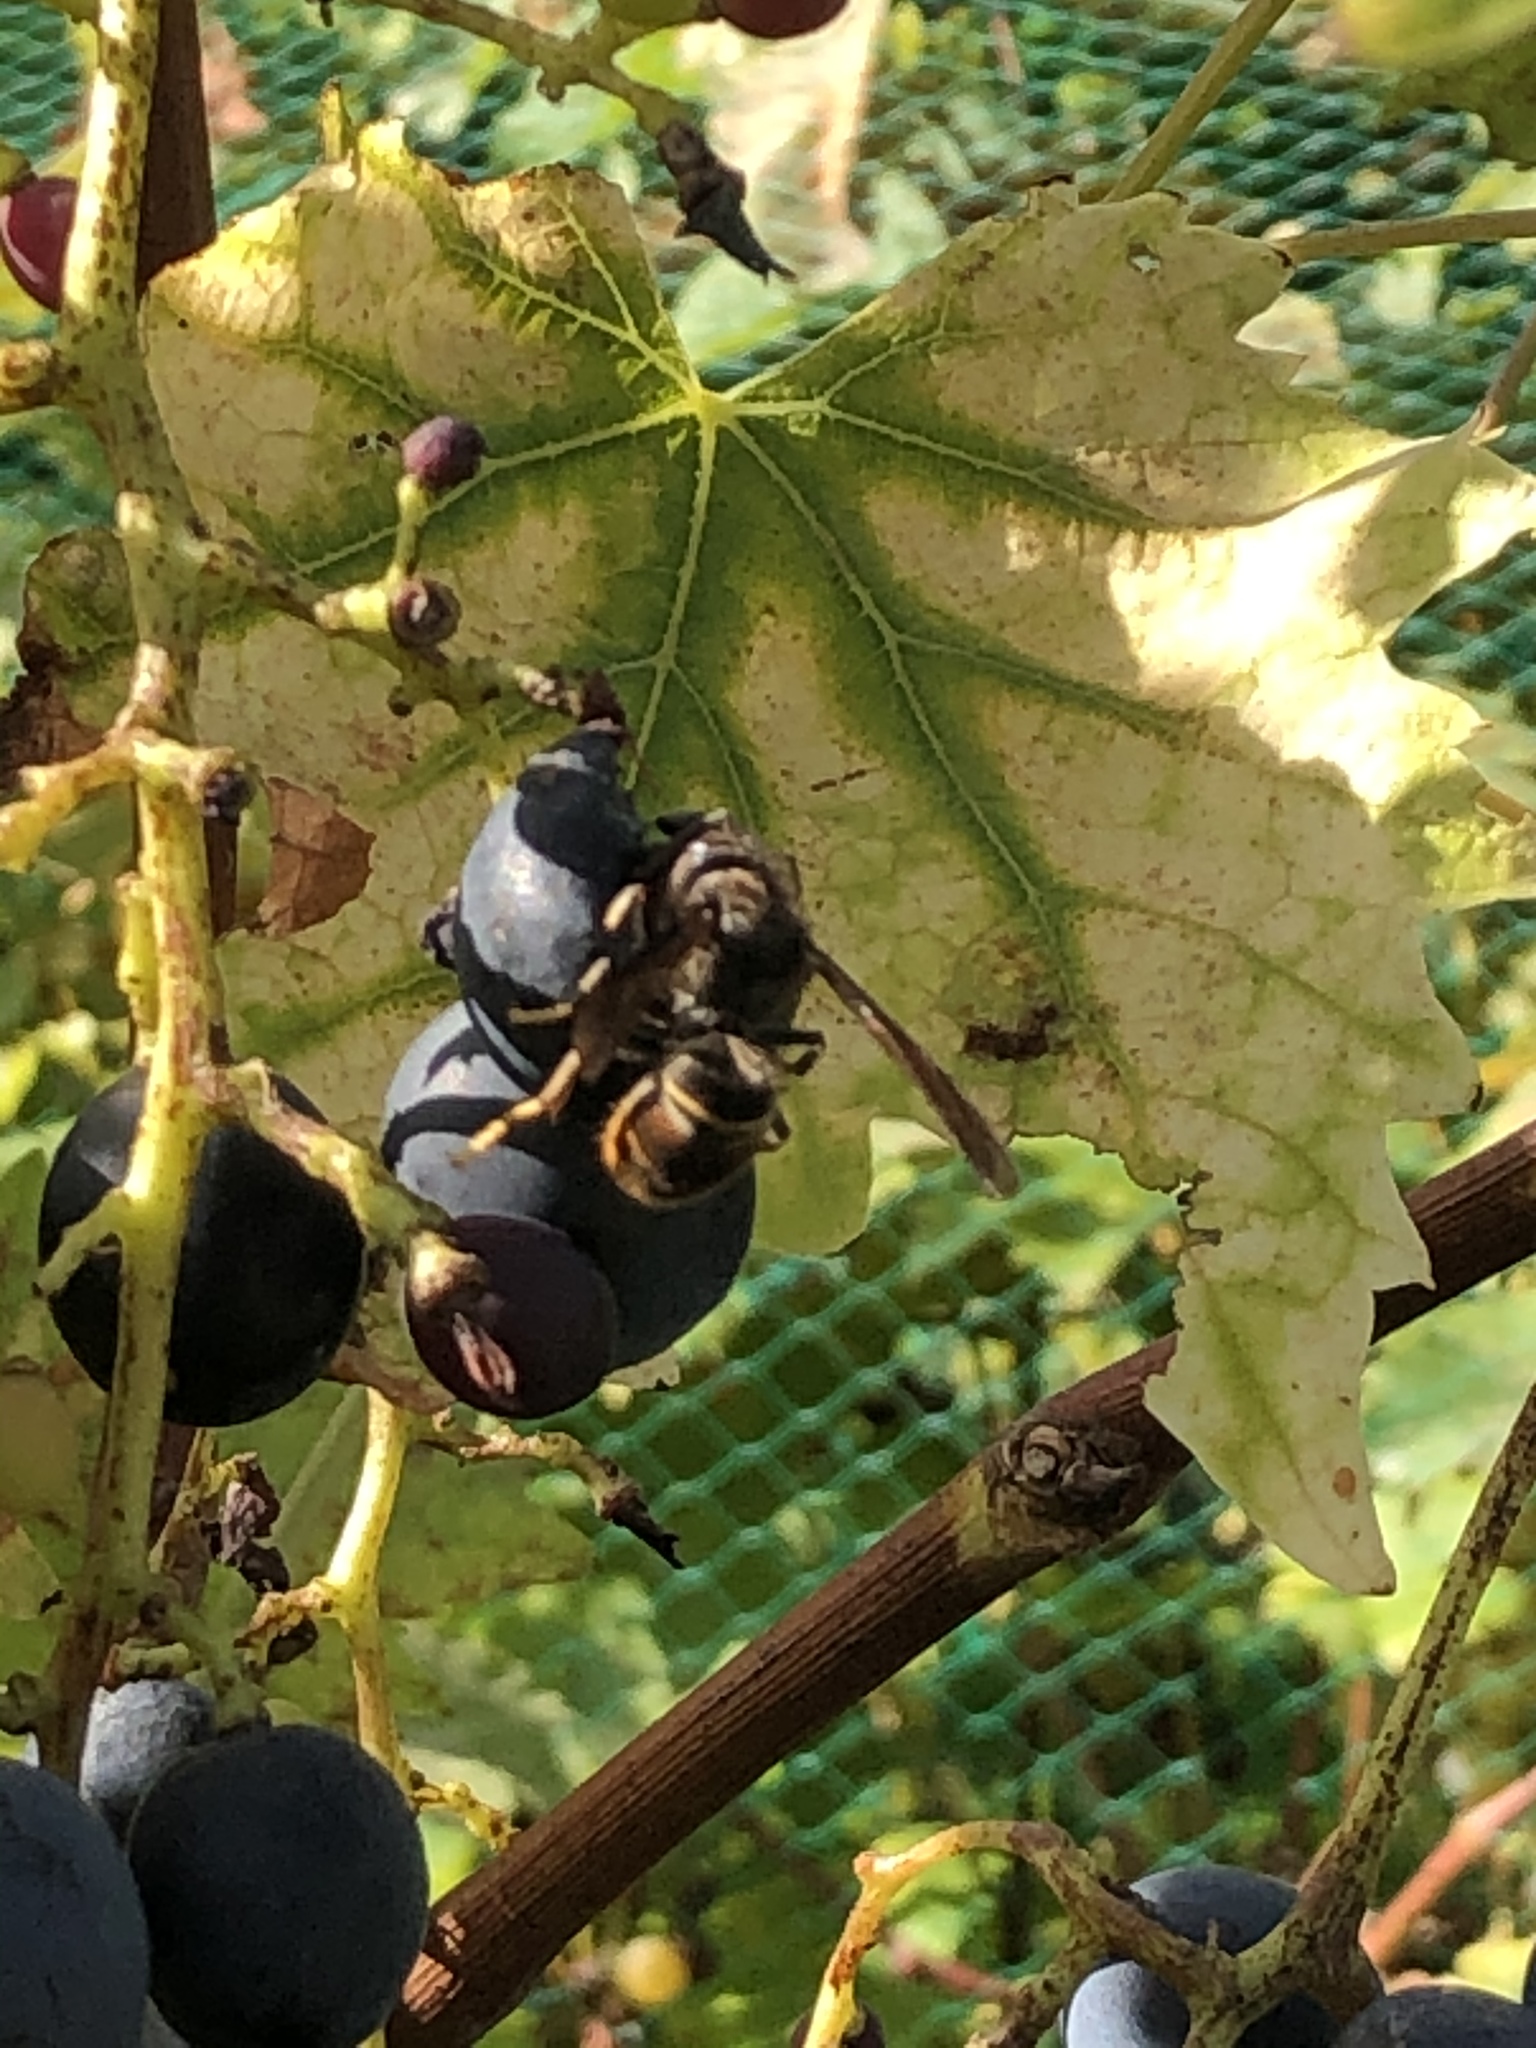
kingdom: Animalia
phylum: Arthropoda
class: Insecta
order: Hymenoptera
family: Vespidae
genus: Vespa
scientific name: Vespa velutina
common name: Asian hornet
